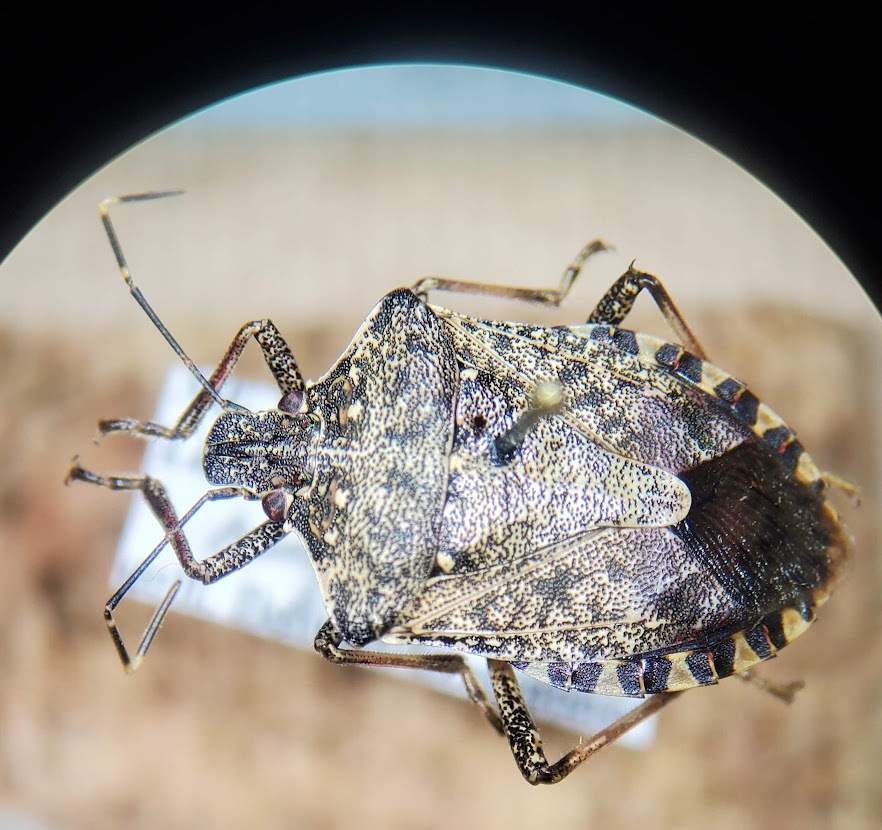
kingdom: Animalia
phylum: Arthropoda
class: Insecta
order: Hemiptera
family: Pentatomidae
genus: Halyomorpha
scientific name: Halyomorpha halys
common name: Brown marmorated stink bug
